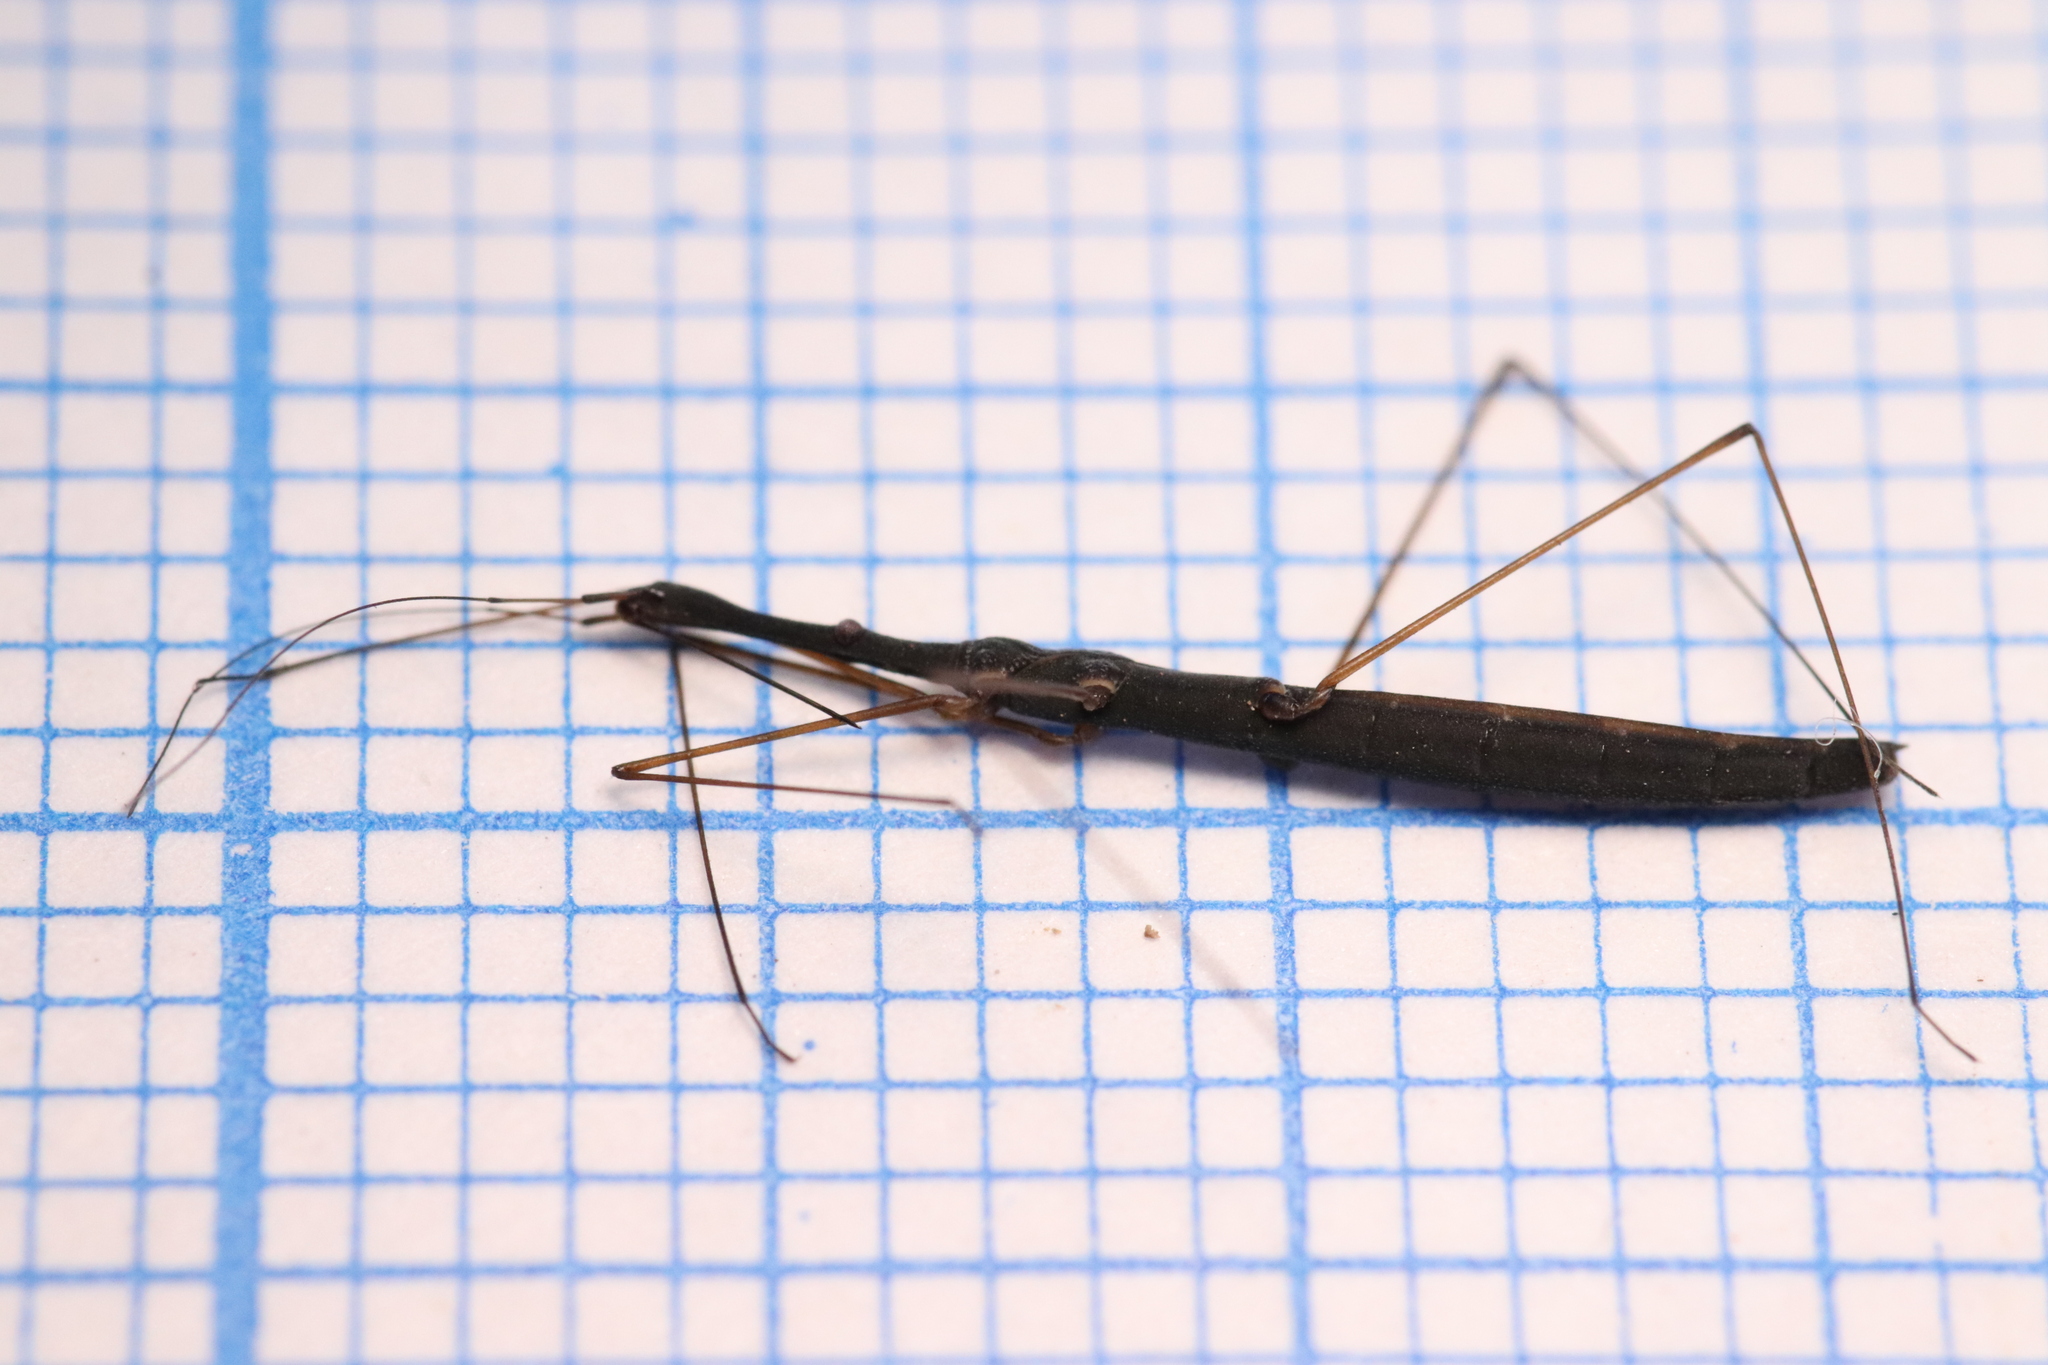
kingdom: Animalia
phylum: Arthropoda
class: Insecta
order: Hemiptera
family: Hydrometridae
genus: Hydrometra
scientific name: Hydrometra stagnorum
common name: Water measurer
